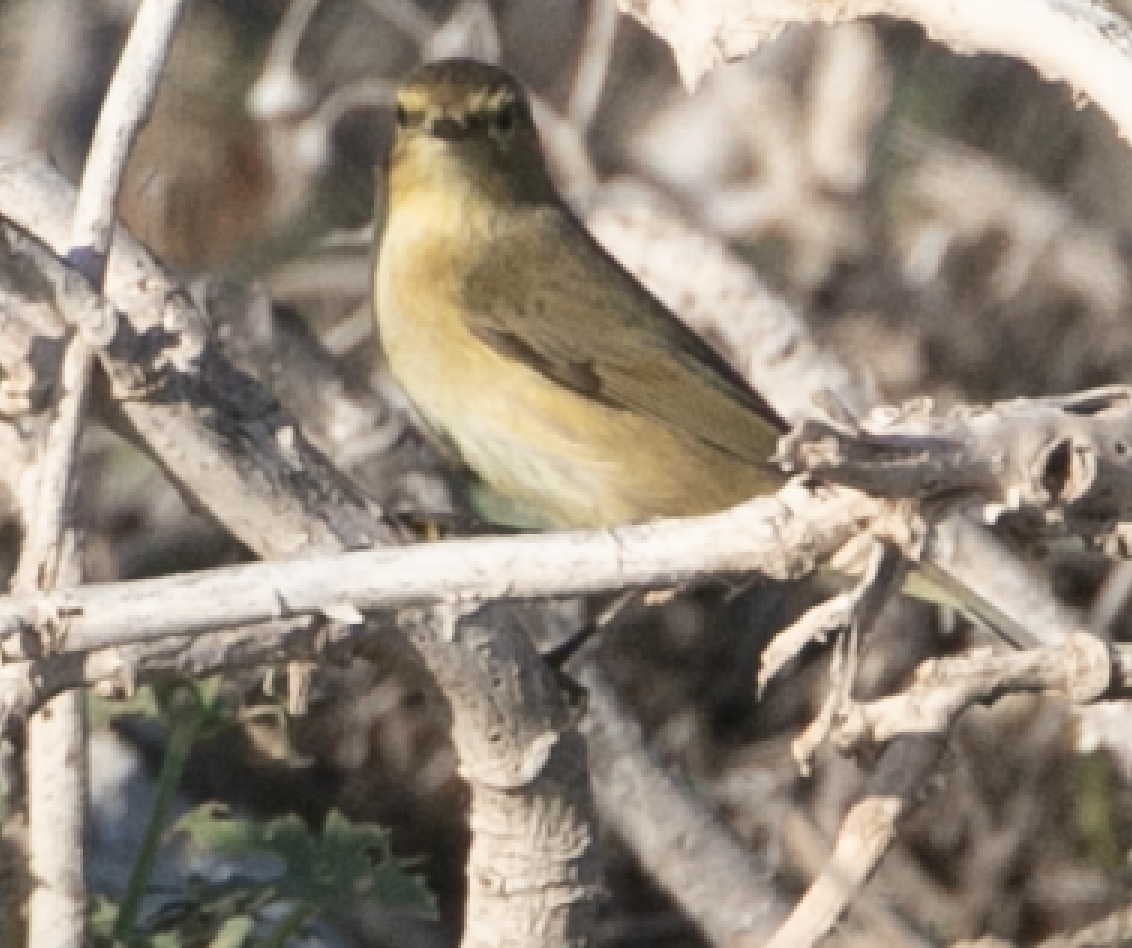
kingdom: Animalia
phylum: Chordata
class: Aves
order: Passeriformes
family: Phylloscopidae
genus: Phylloscopus
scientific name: Phylloscopus collybita
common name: Common chiffchaff
